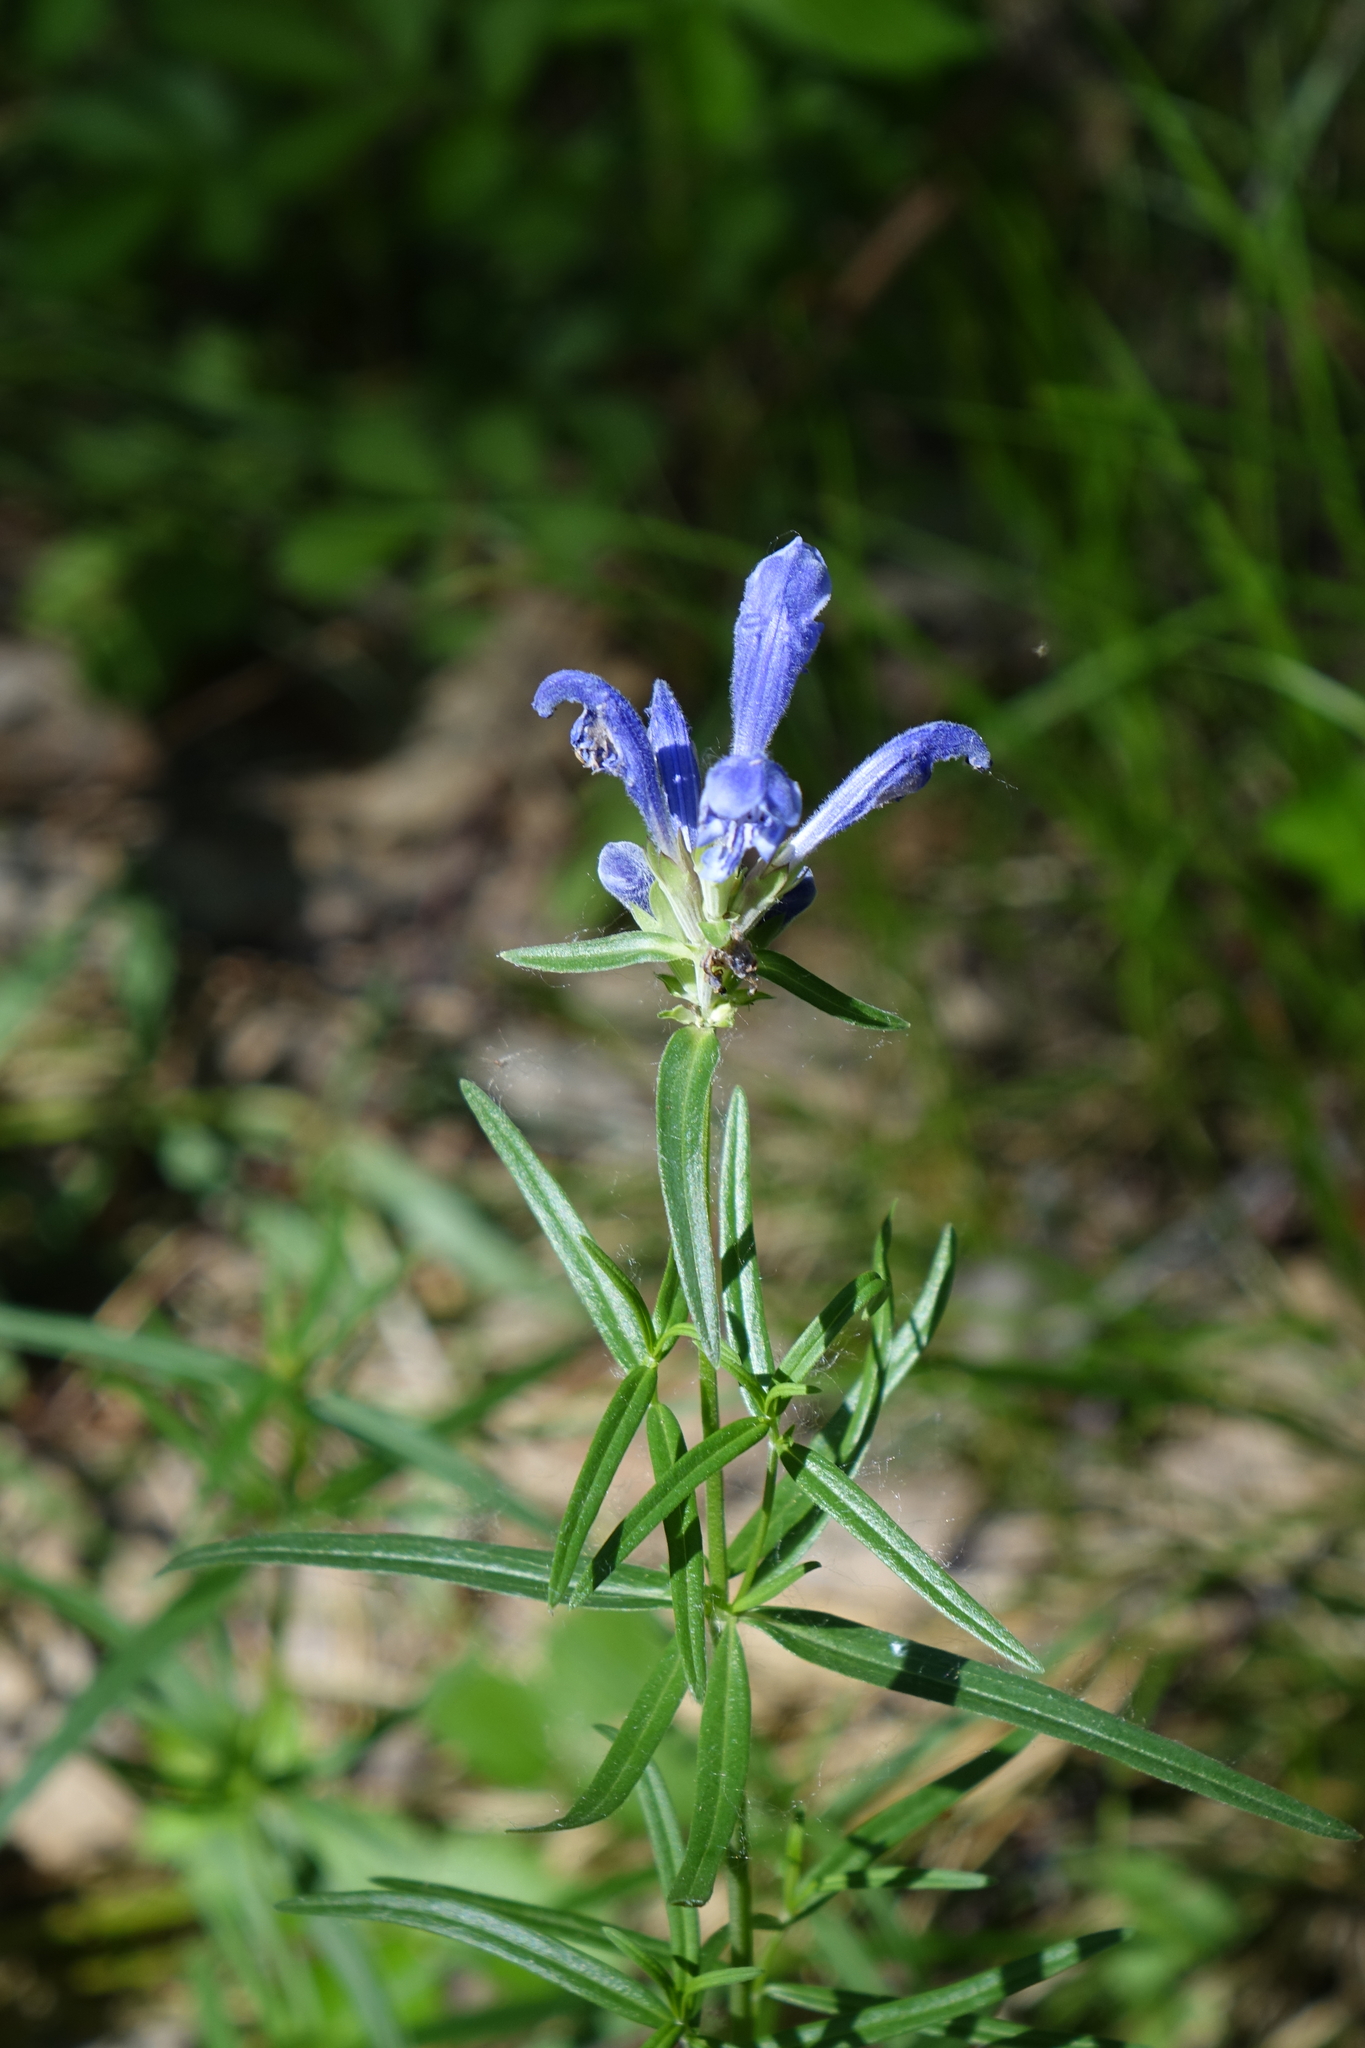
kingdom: Plantae
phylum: Tracheophyta
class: Magnoliopsida
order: Lamiales
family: Lamiaceae
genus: Dracocephalum
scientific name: Dracocephalum ruyschiana
